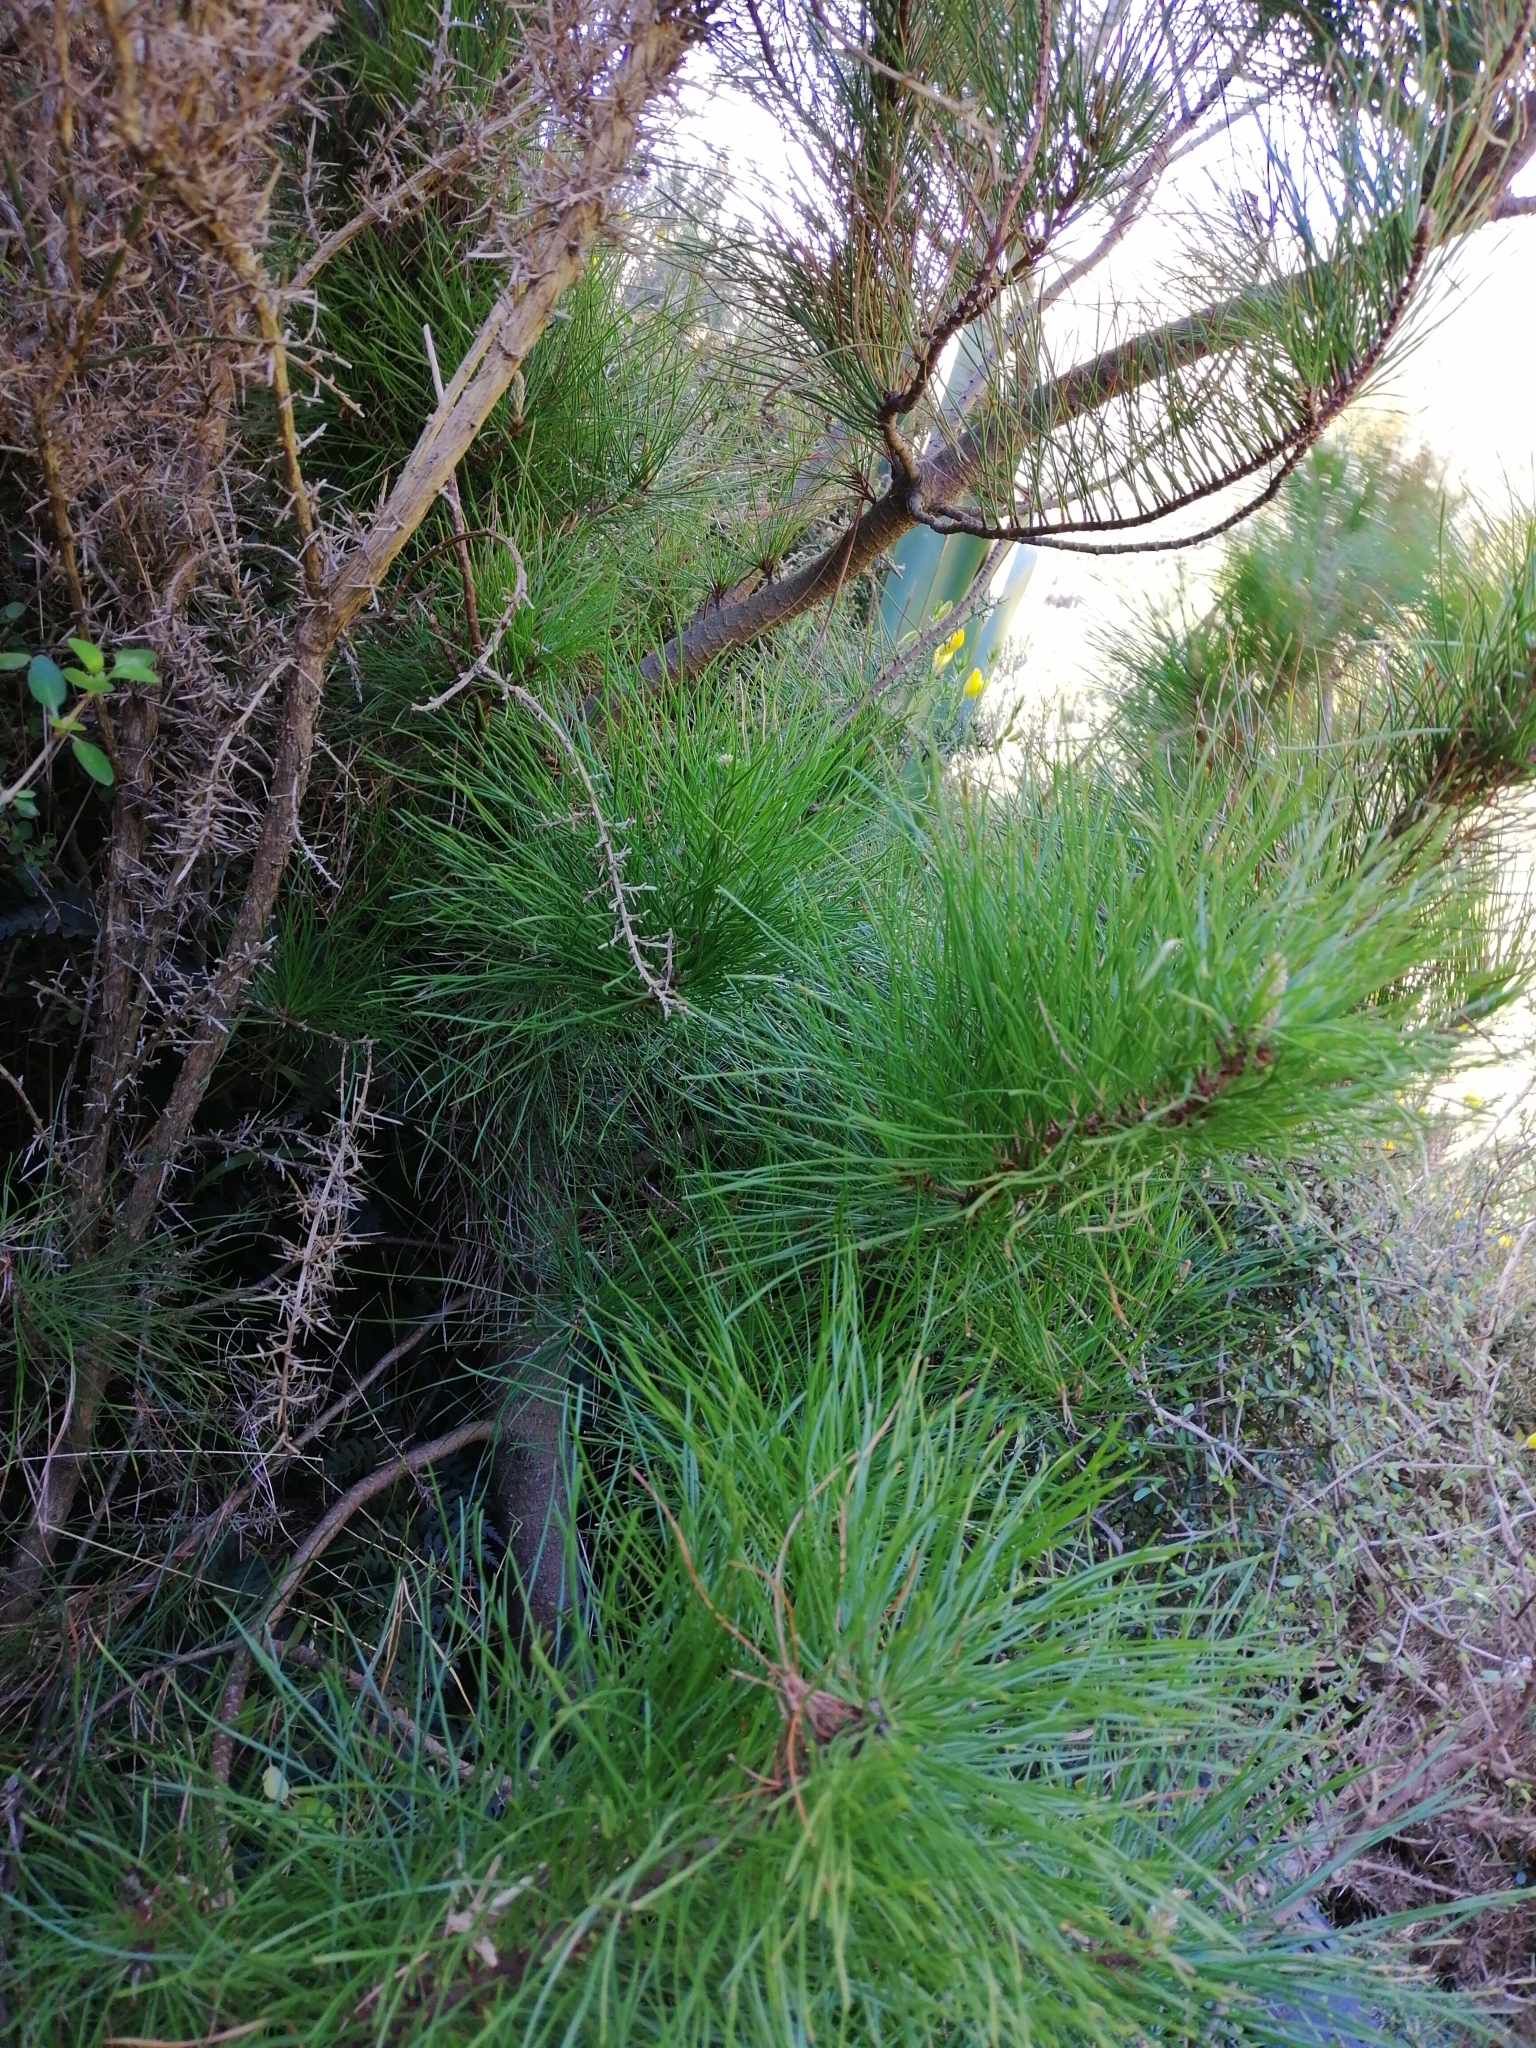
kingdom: Plantae
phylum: Tracheophyta
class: Pinopsida
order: Pinales
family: Pinaceae
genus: Pinus
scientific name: Pinus radiata
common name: Monterey pine
